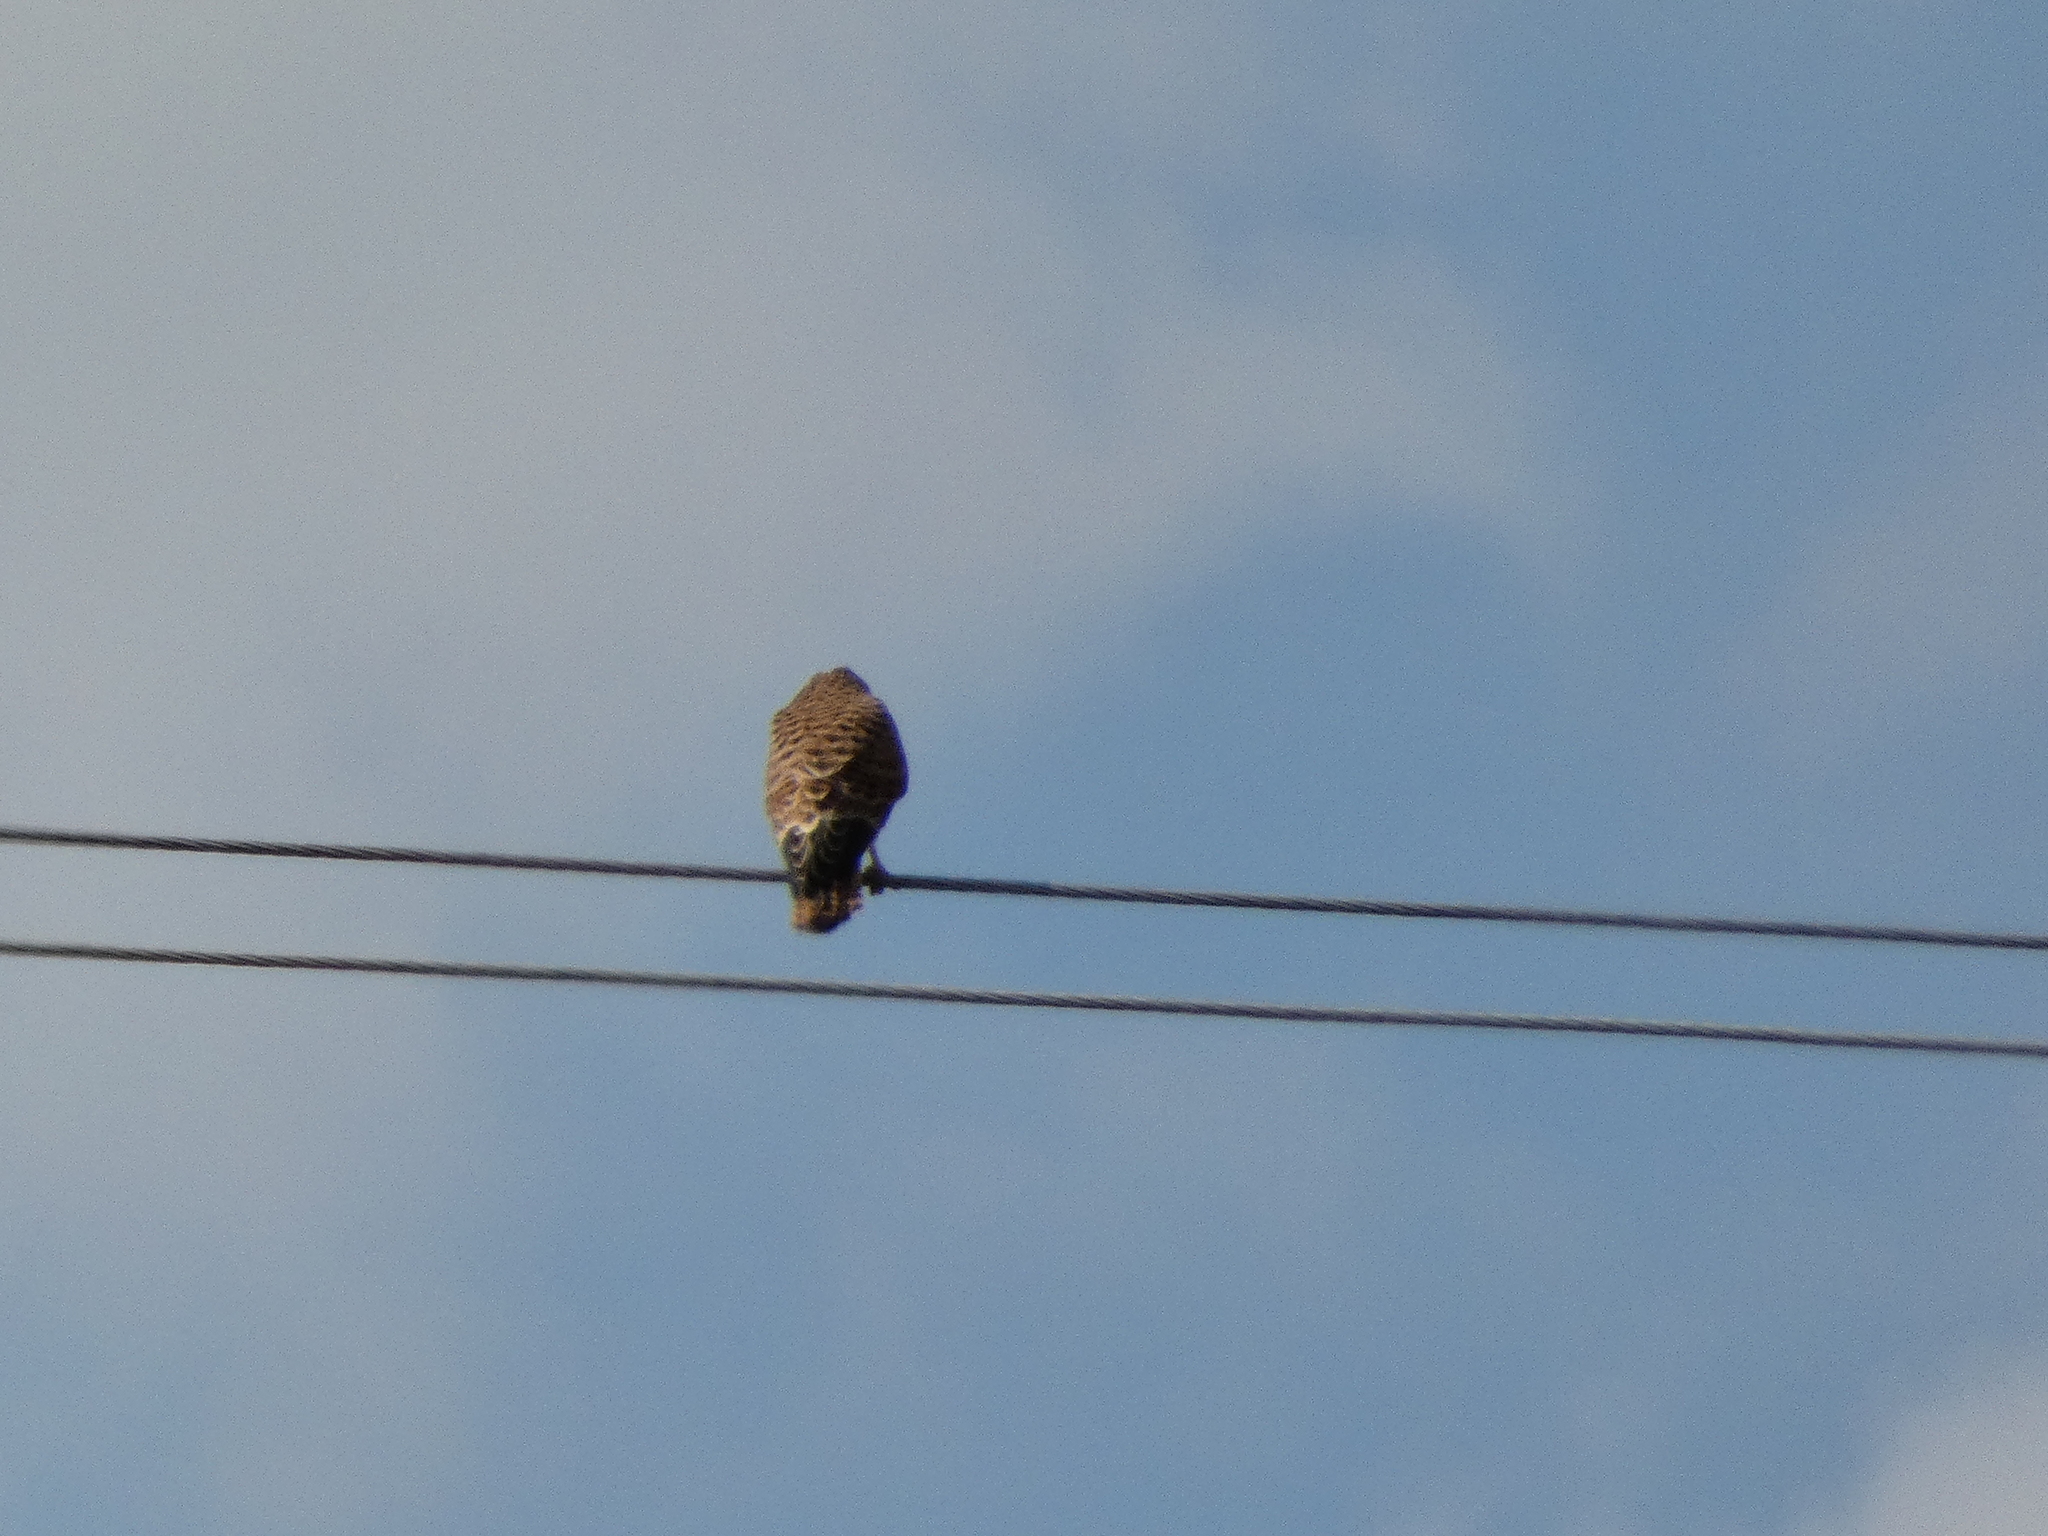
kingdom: Animalia
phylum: Chordata
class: Aves
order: Falconiformes
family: Falconidae
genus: Falco
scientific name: Falco tinnunculus
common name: Common kestrel
